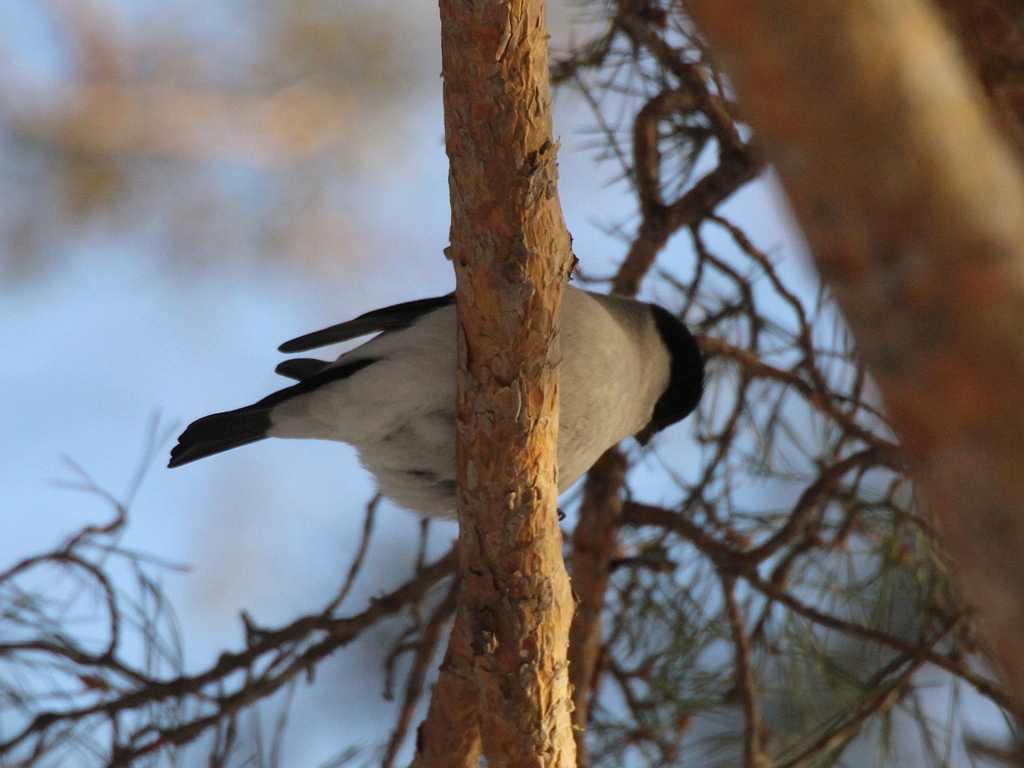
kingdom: Animalia
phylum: Chordata
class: Aves
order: Passeriformes
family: Fringillidae
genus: Pyrrhula
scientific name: Pyrrhula pyrrhula
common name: Eurasian bullfinch
